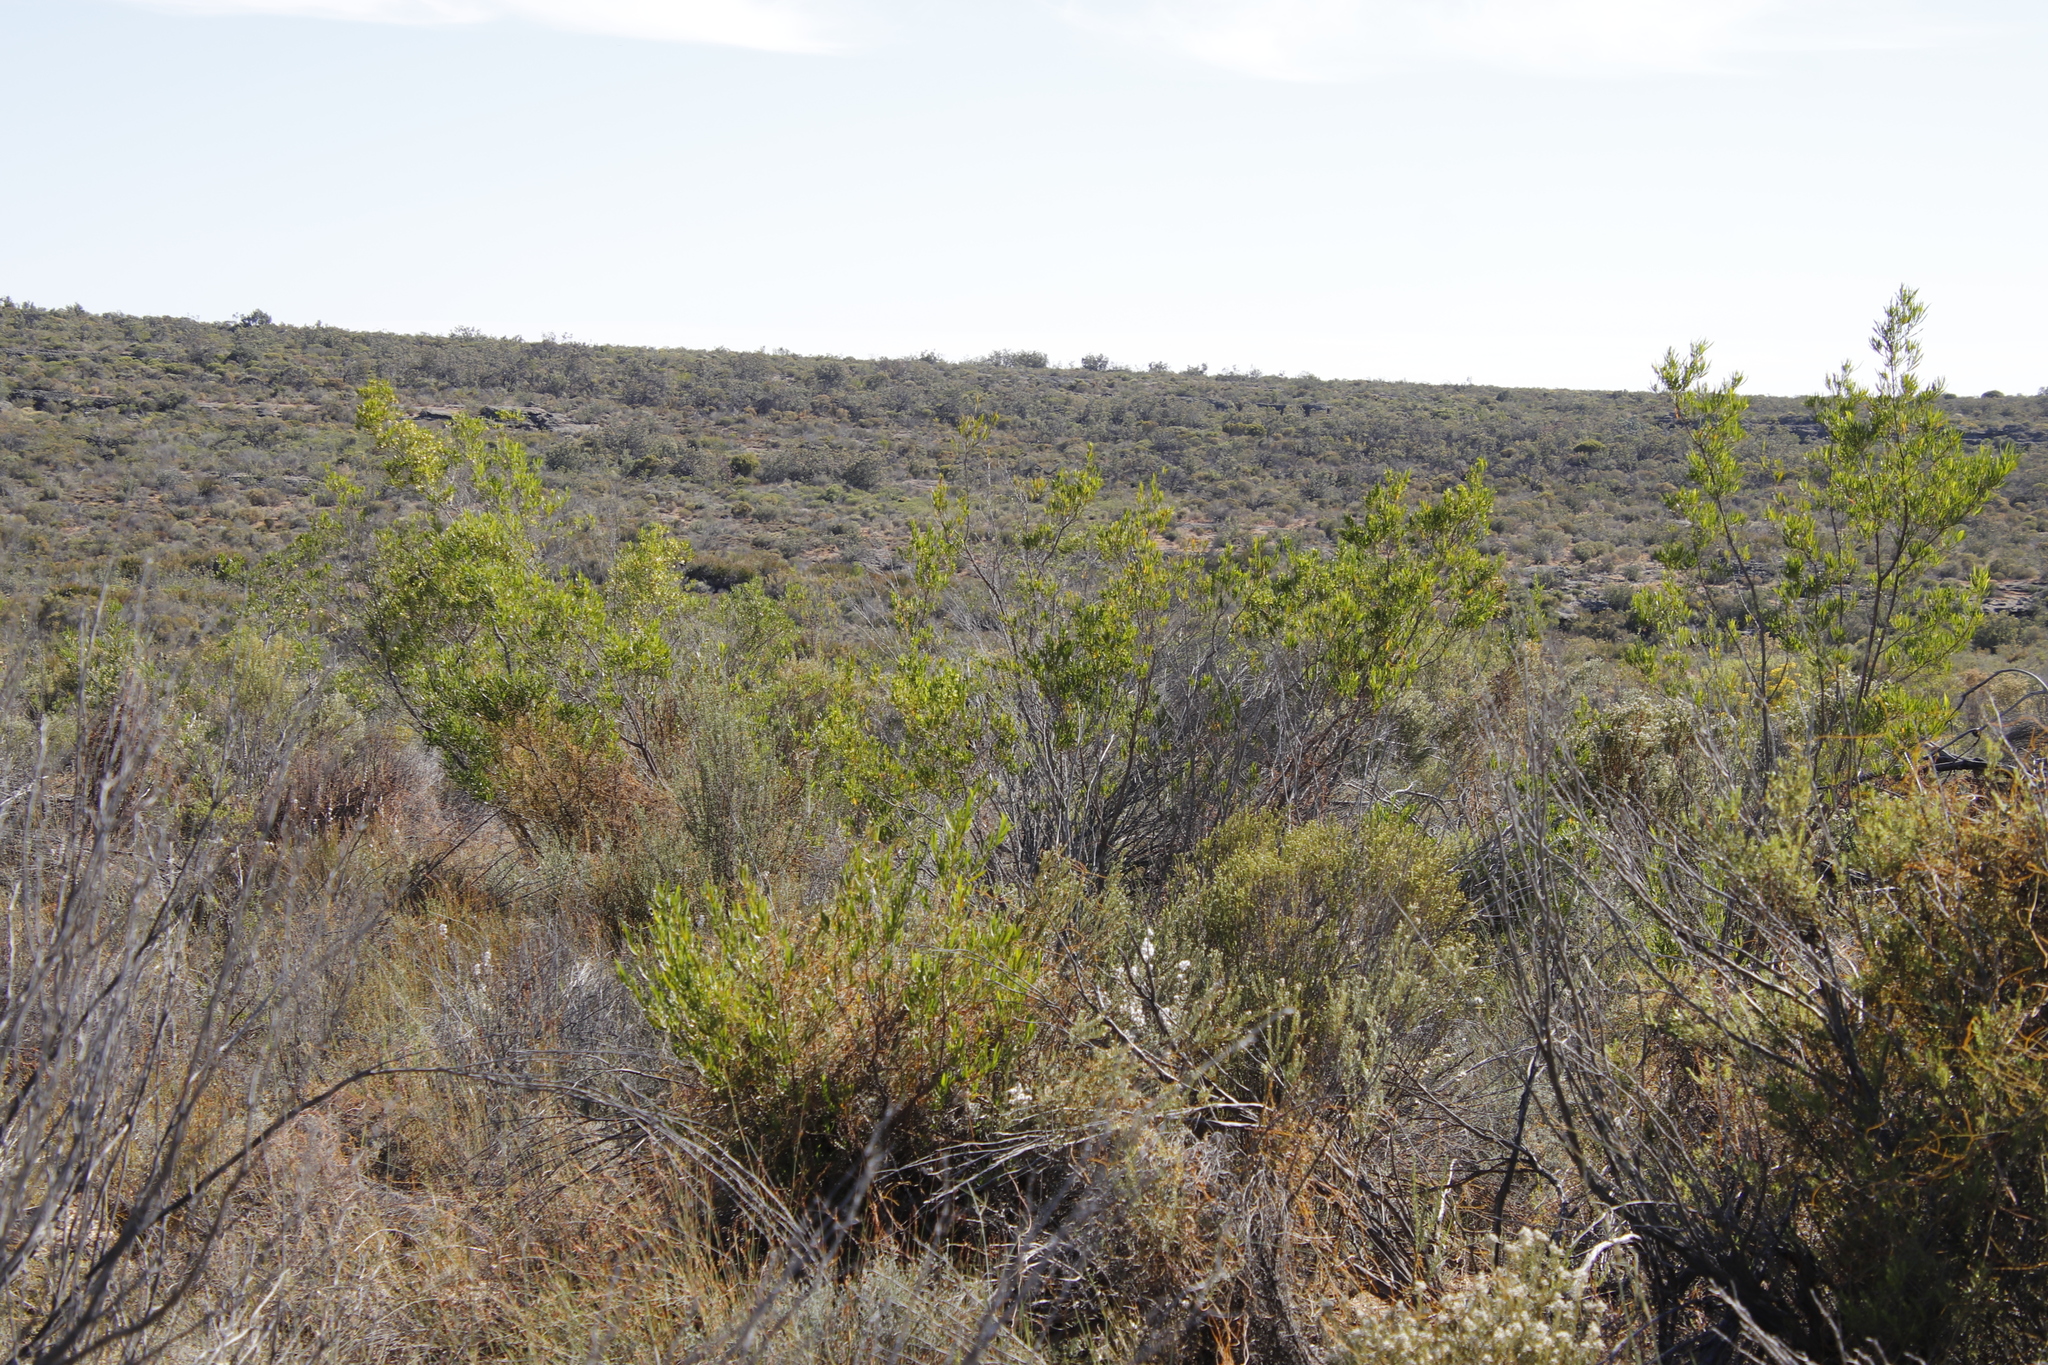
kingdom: Plantae
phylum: Tracheophyta
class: Magnoliopsida
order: Sapindales
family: Sapindaceae
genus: Dodonaea
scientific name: Dodonaea viscosa
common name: Hopbush
